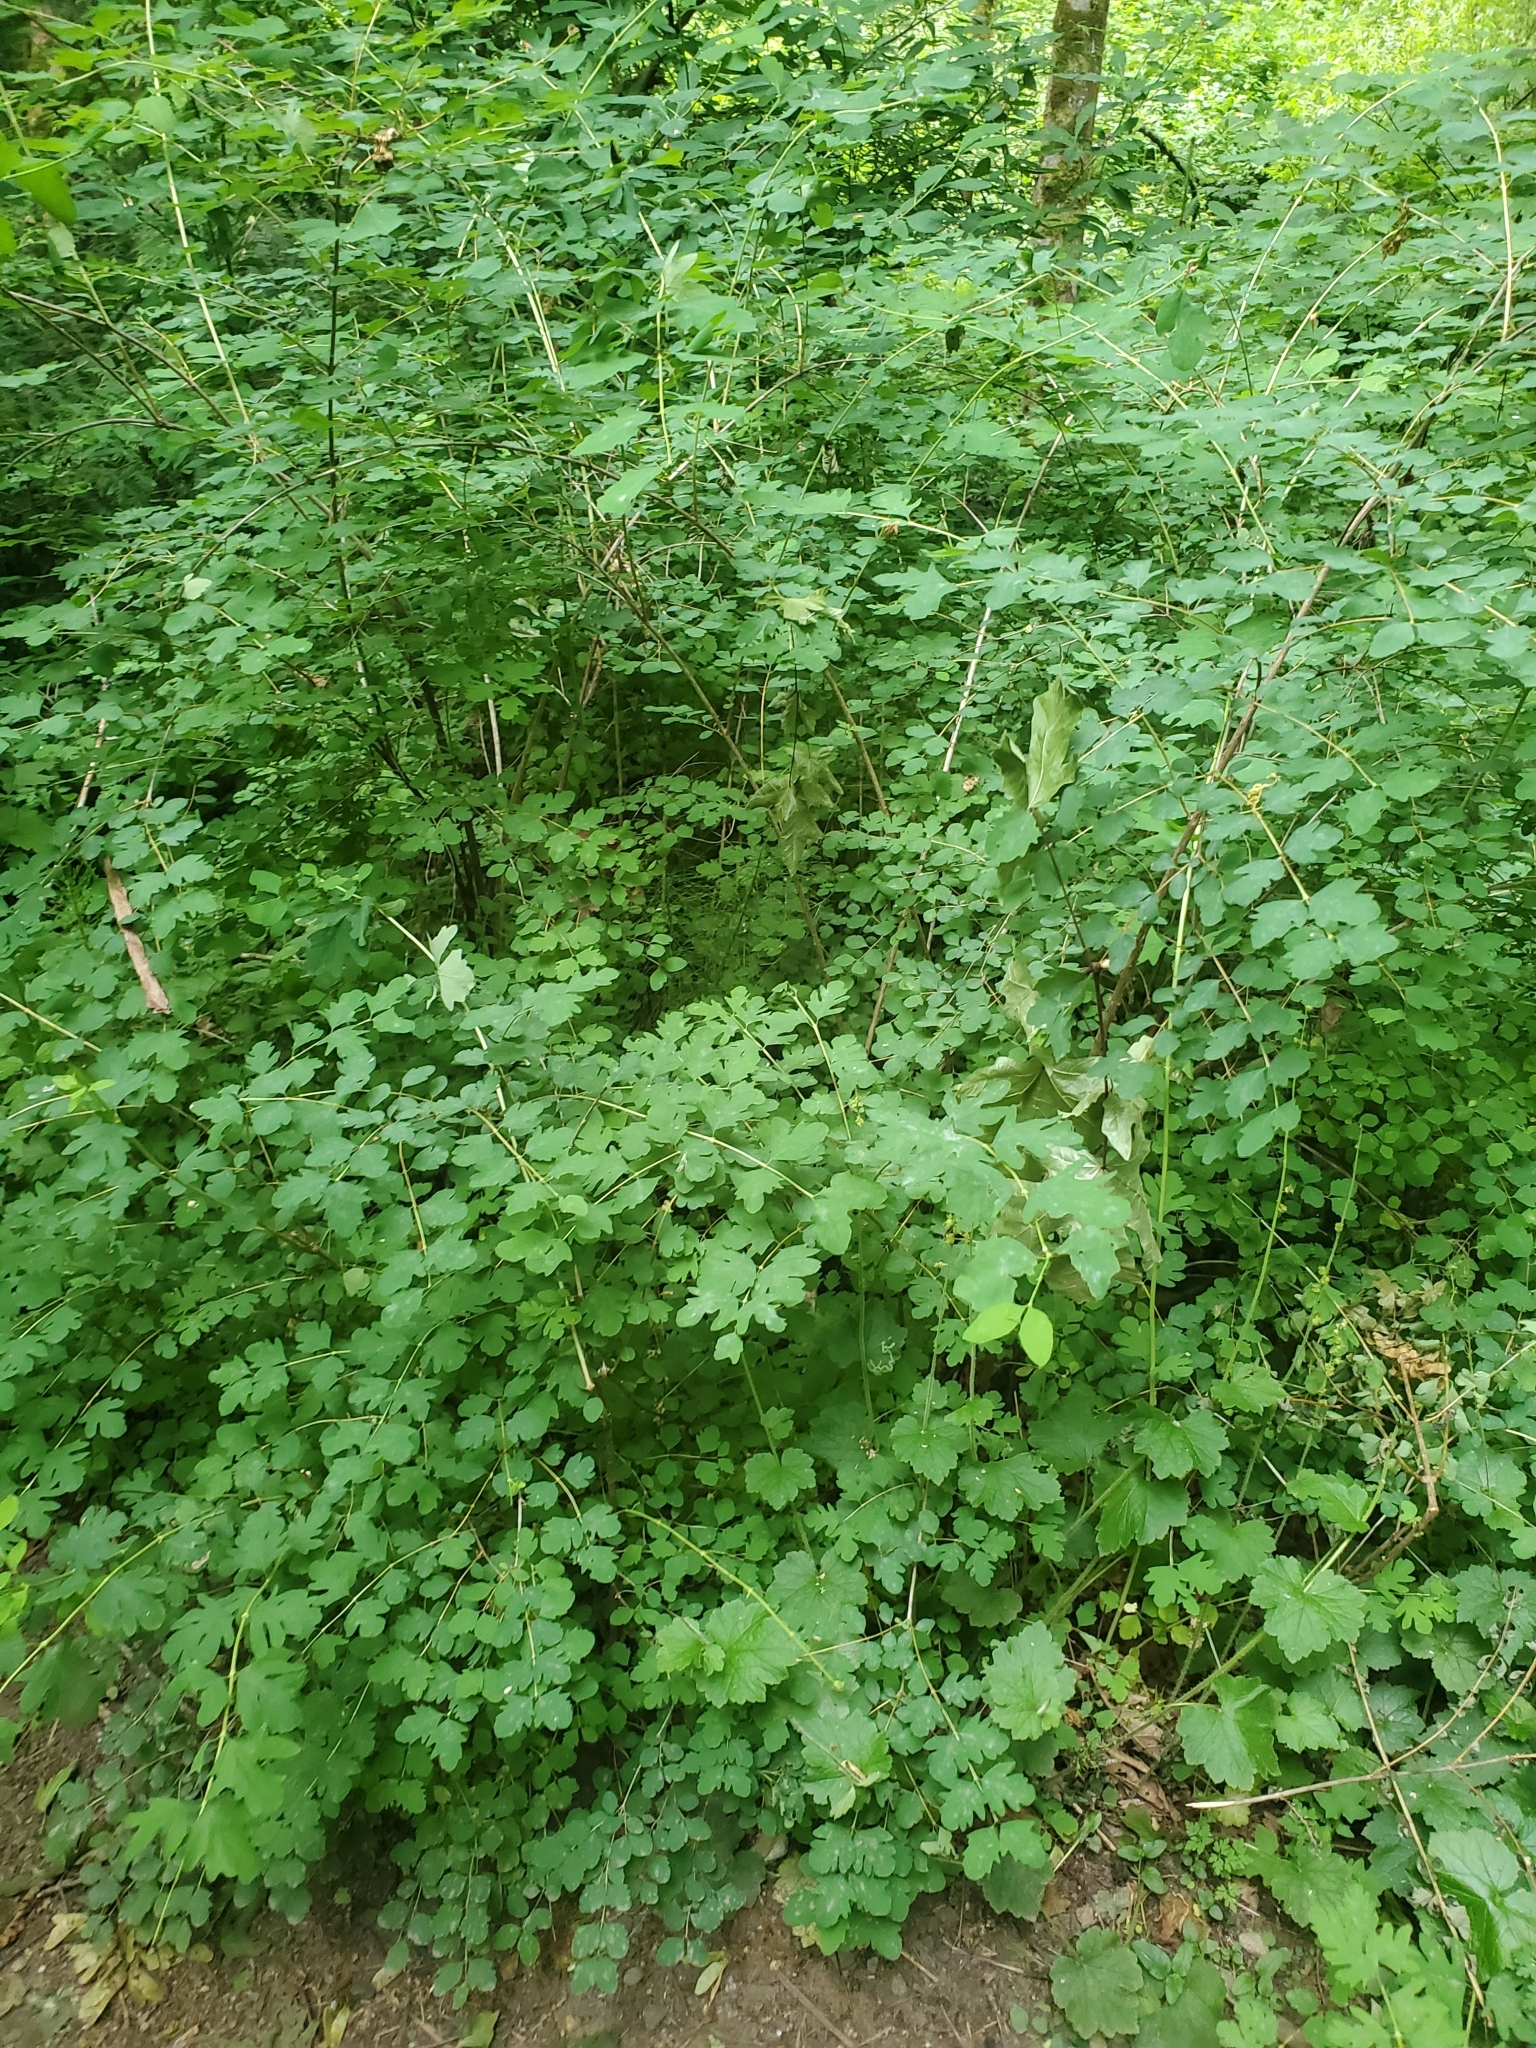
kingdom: Plantae
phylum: Tracheophyta
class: Magnoliopsida
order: Dipsacales
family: Caprifoliaceae
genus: Symphoricarpos
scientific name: Symphoricarpos albus
